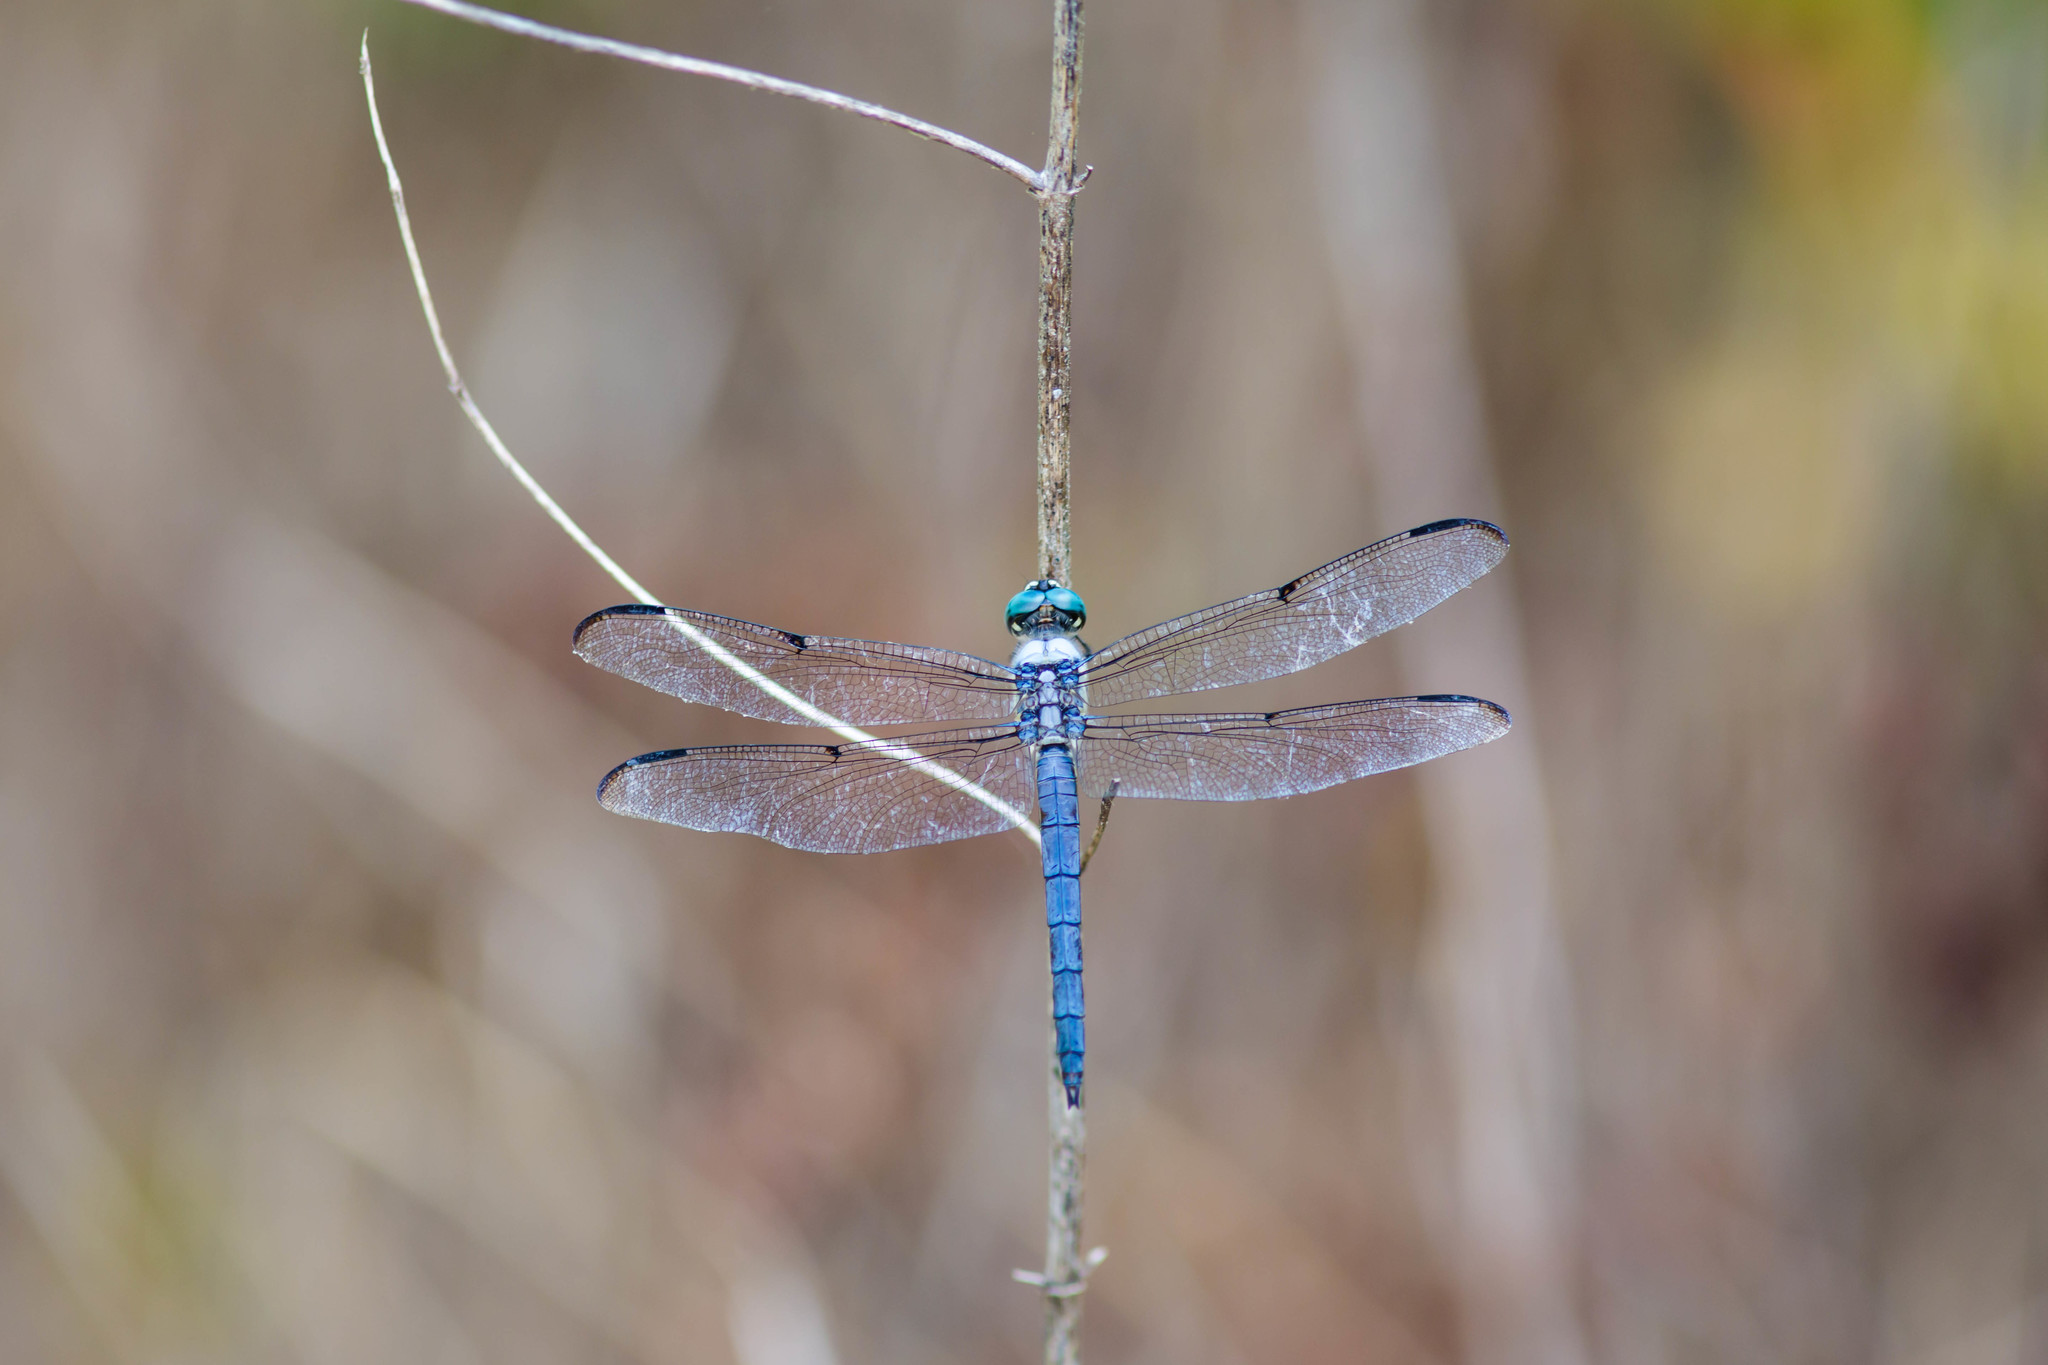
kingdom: Animalia
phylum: Arthropoda
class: Insecta
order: Odonata
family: Libellulidae
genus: Libellula
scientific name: Libellula vibrans
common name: Great blue skimmer
